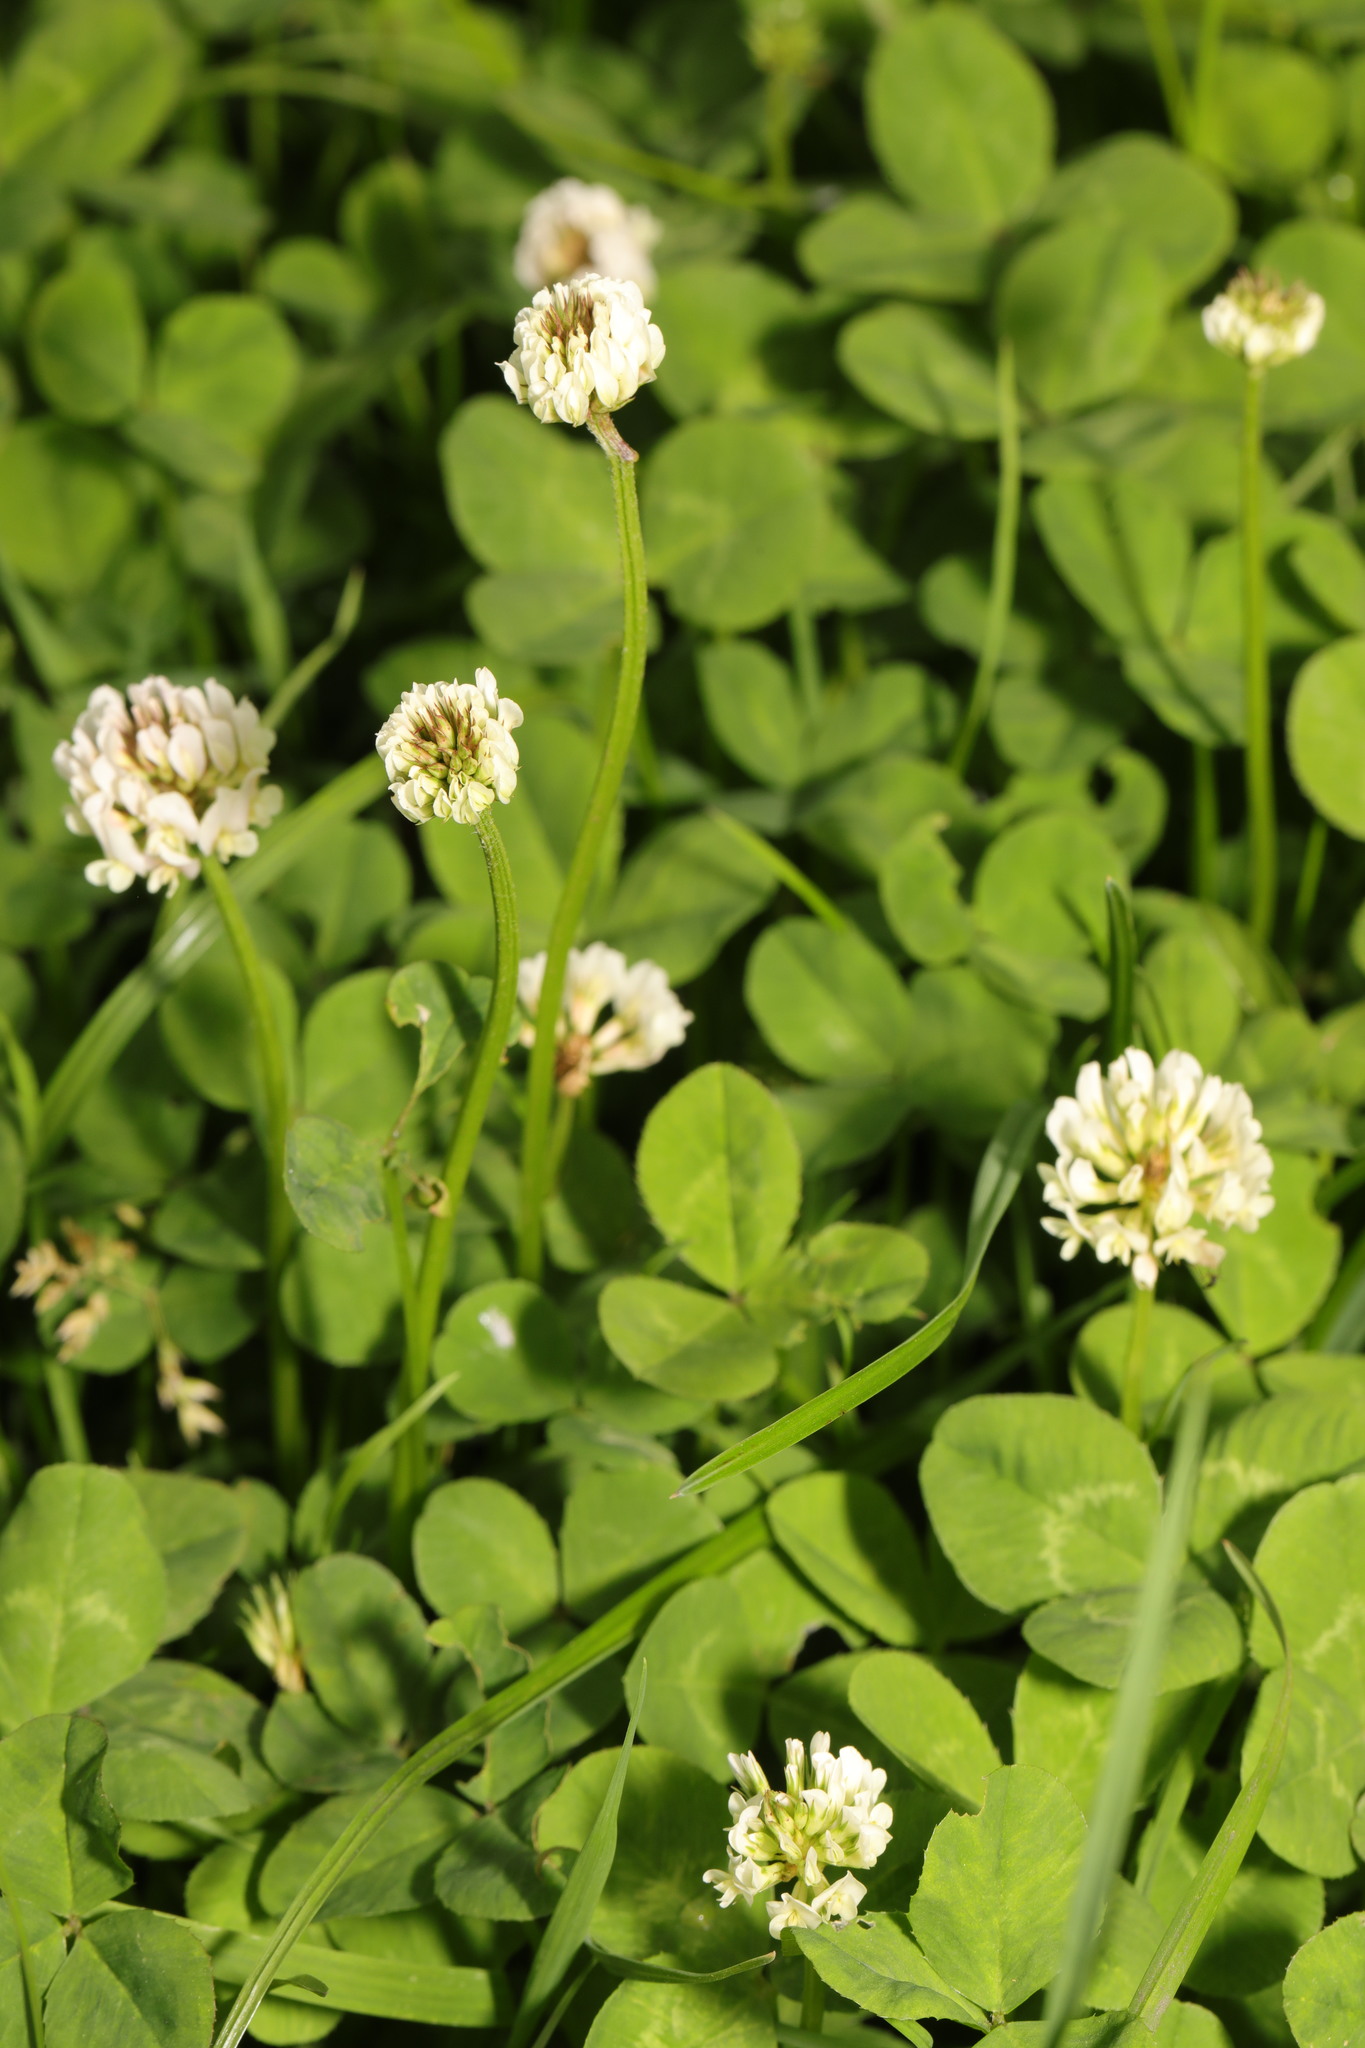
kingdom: Plantae
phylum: Tracheophyta
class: Magnoliopsida
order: Fabales
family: Fabaceae
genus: Trifolium
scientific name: Trifolium repens
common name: White clover
